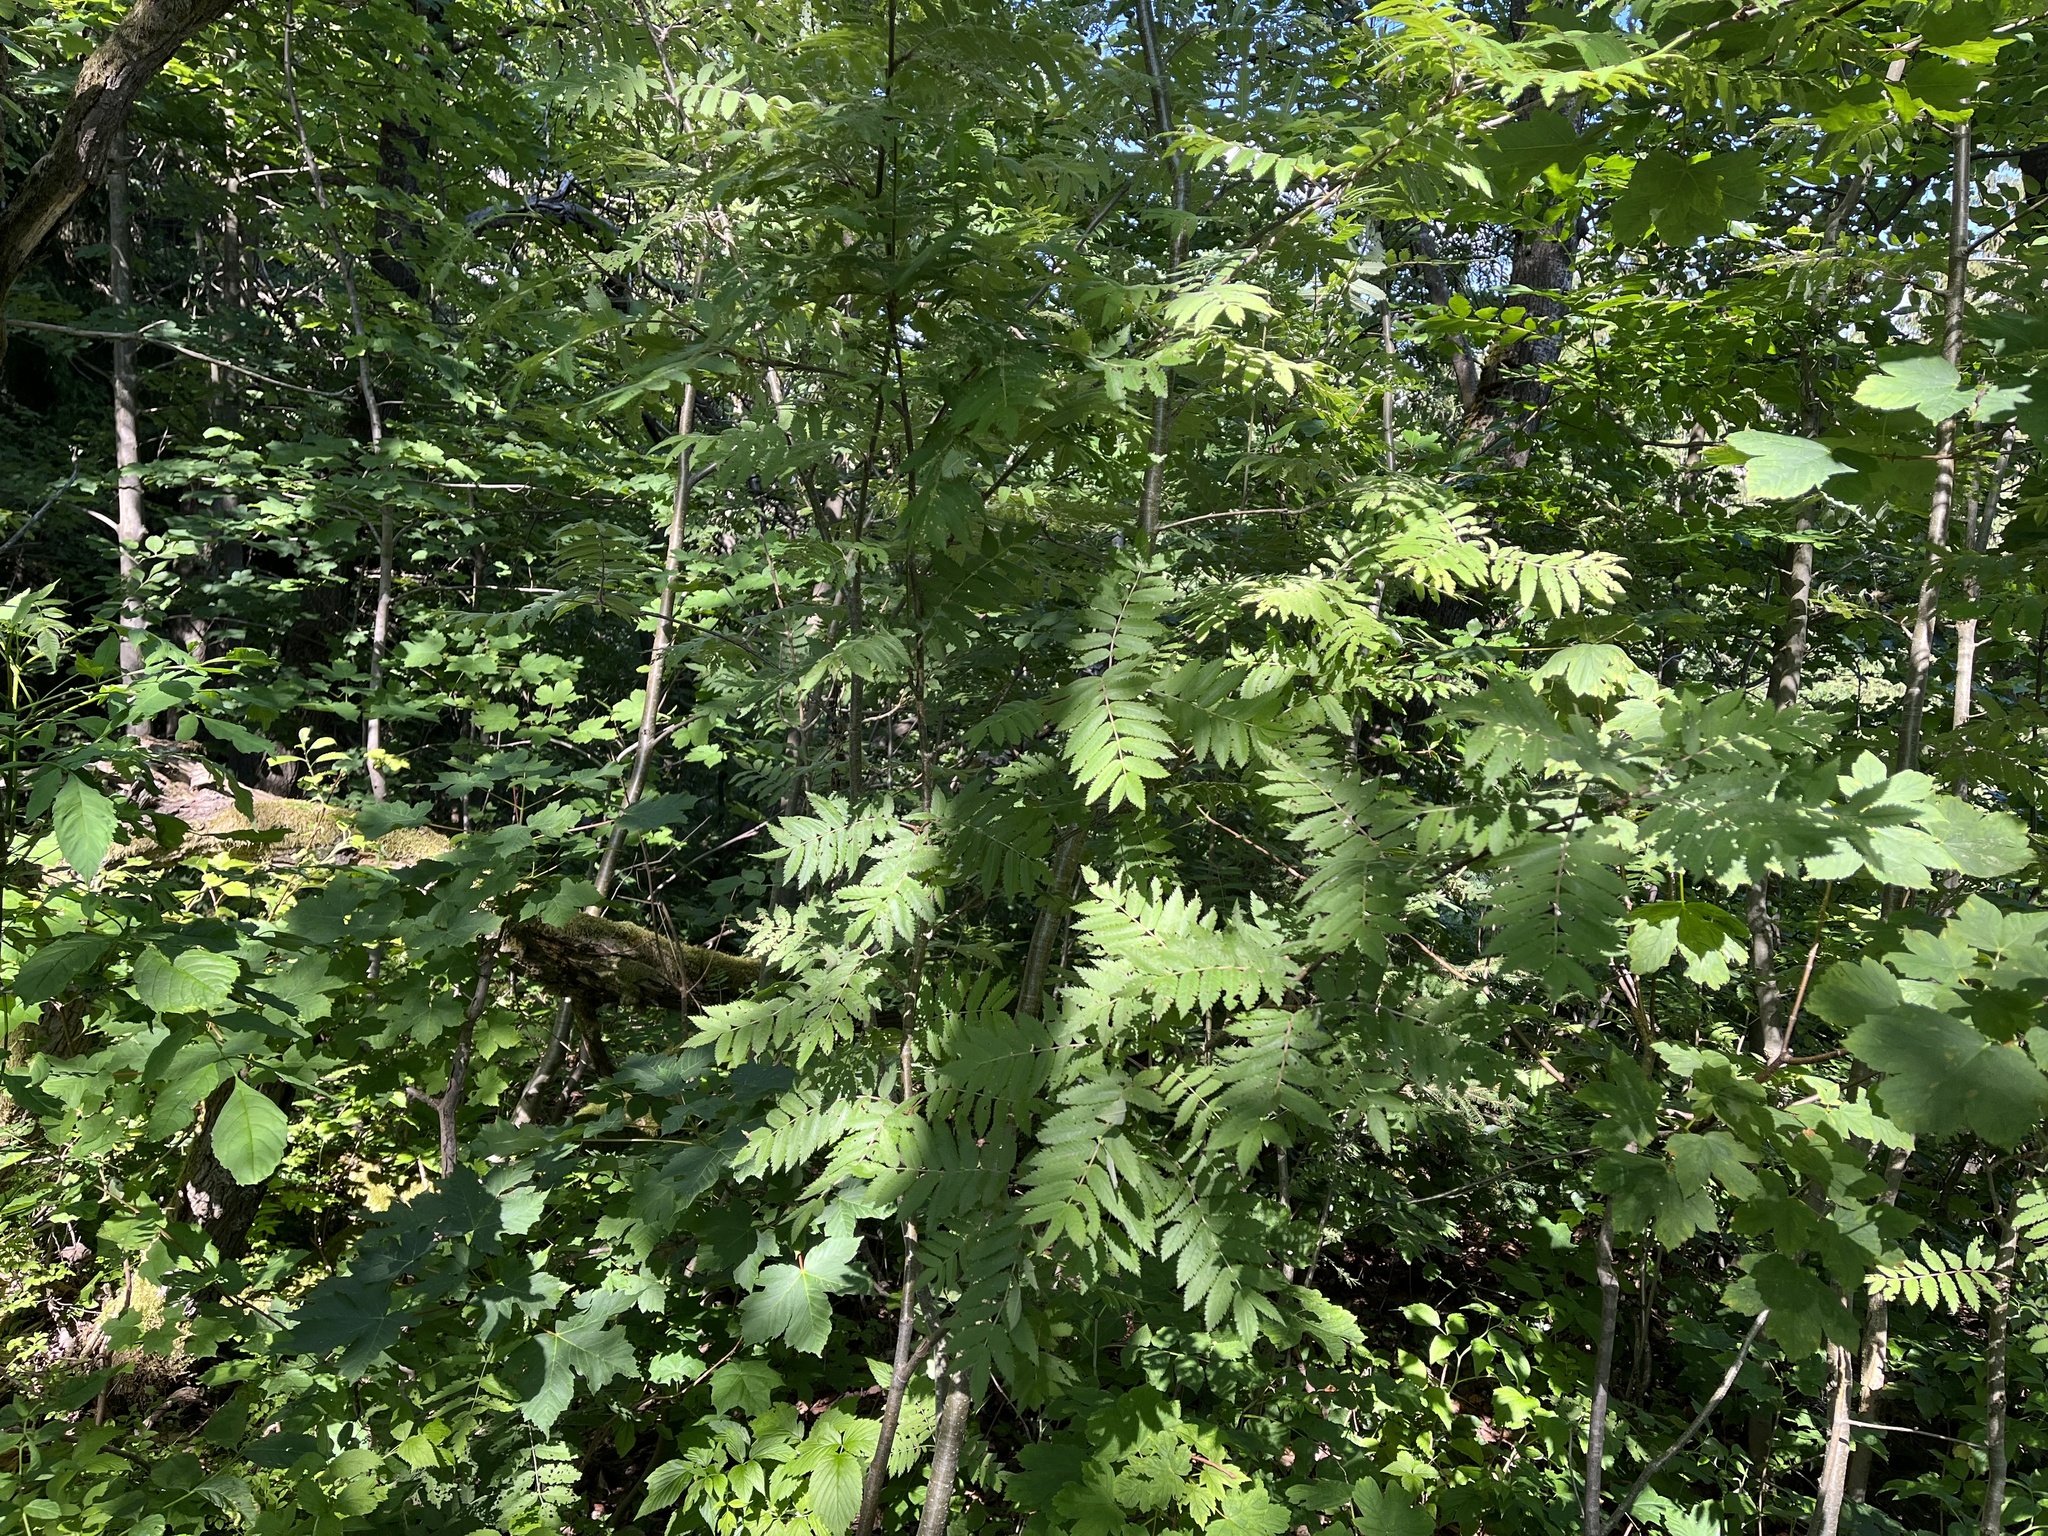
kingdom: Plantae
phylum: Tracheophyta
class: Magnoliopsida
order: Rosales
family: Rosaceae
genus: Sorbus
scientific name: Sorbus aucuparia
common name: Rowan
